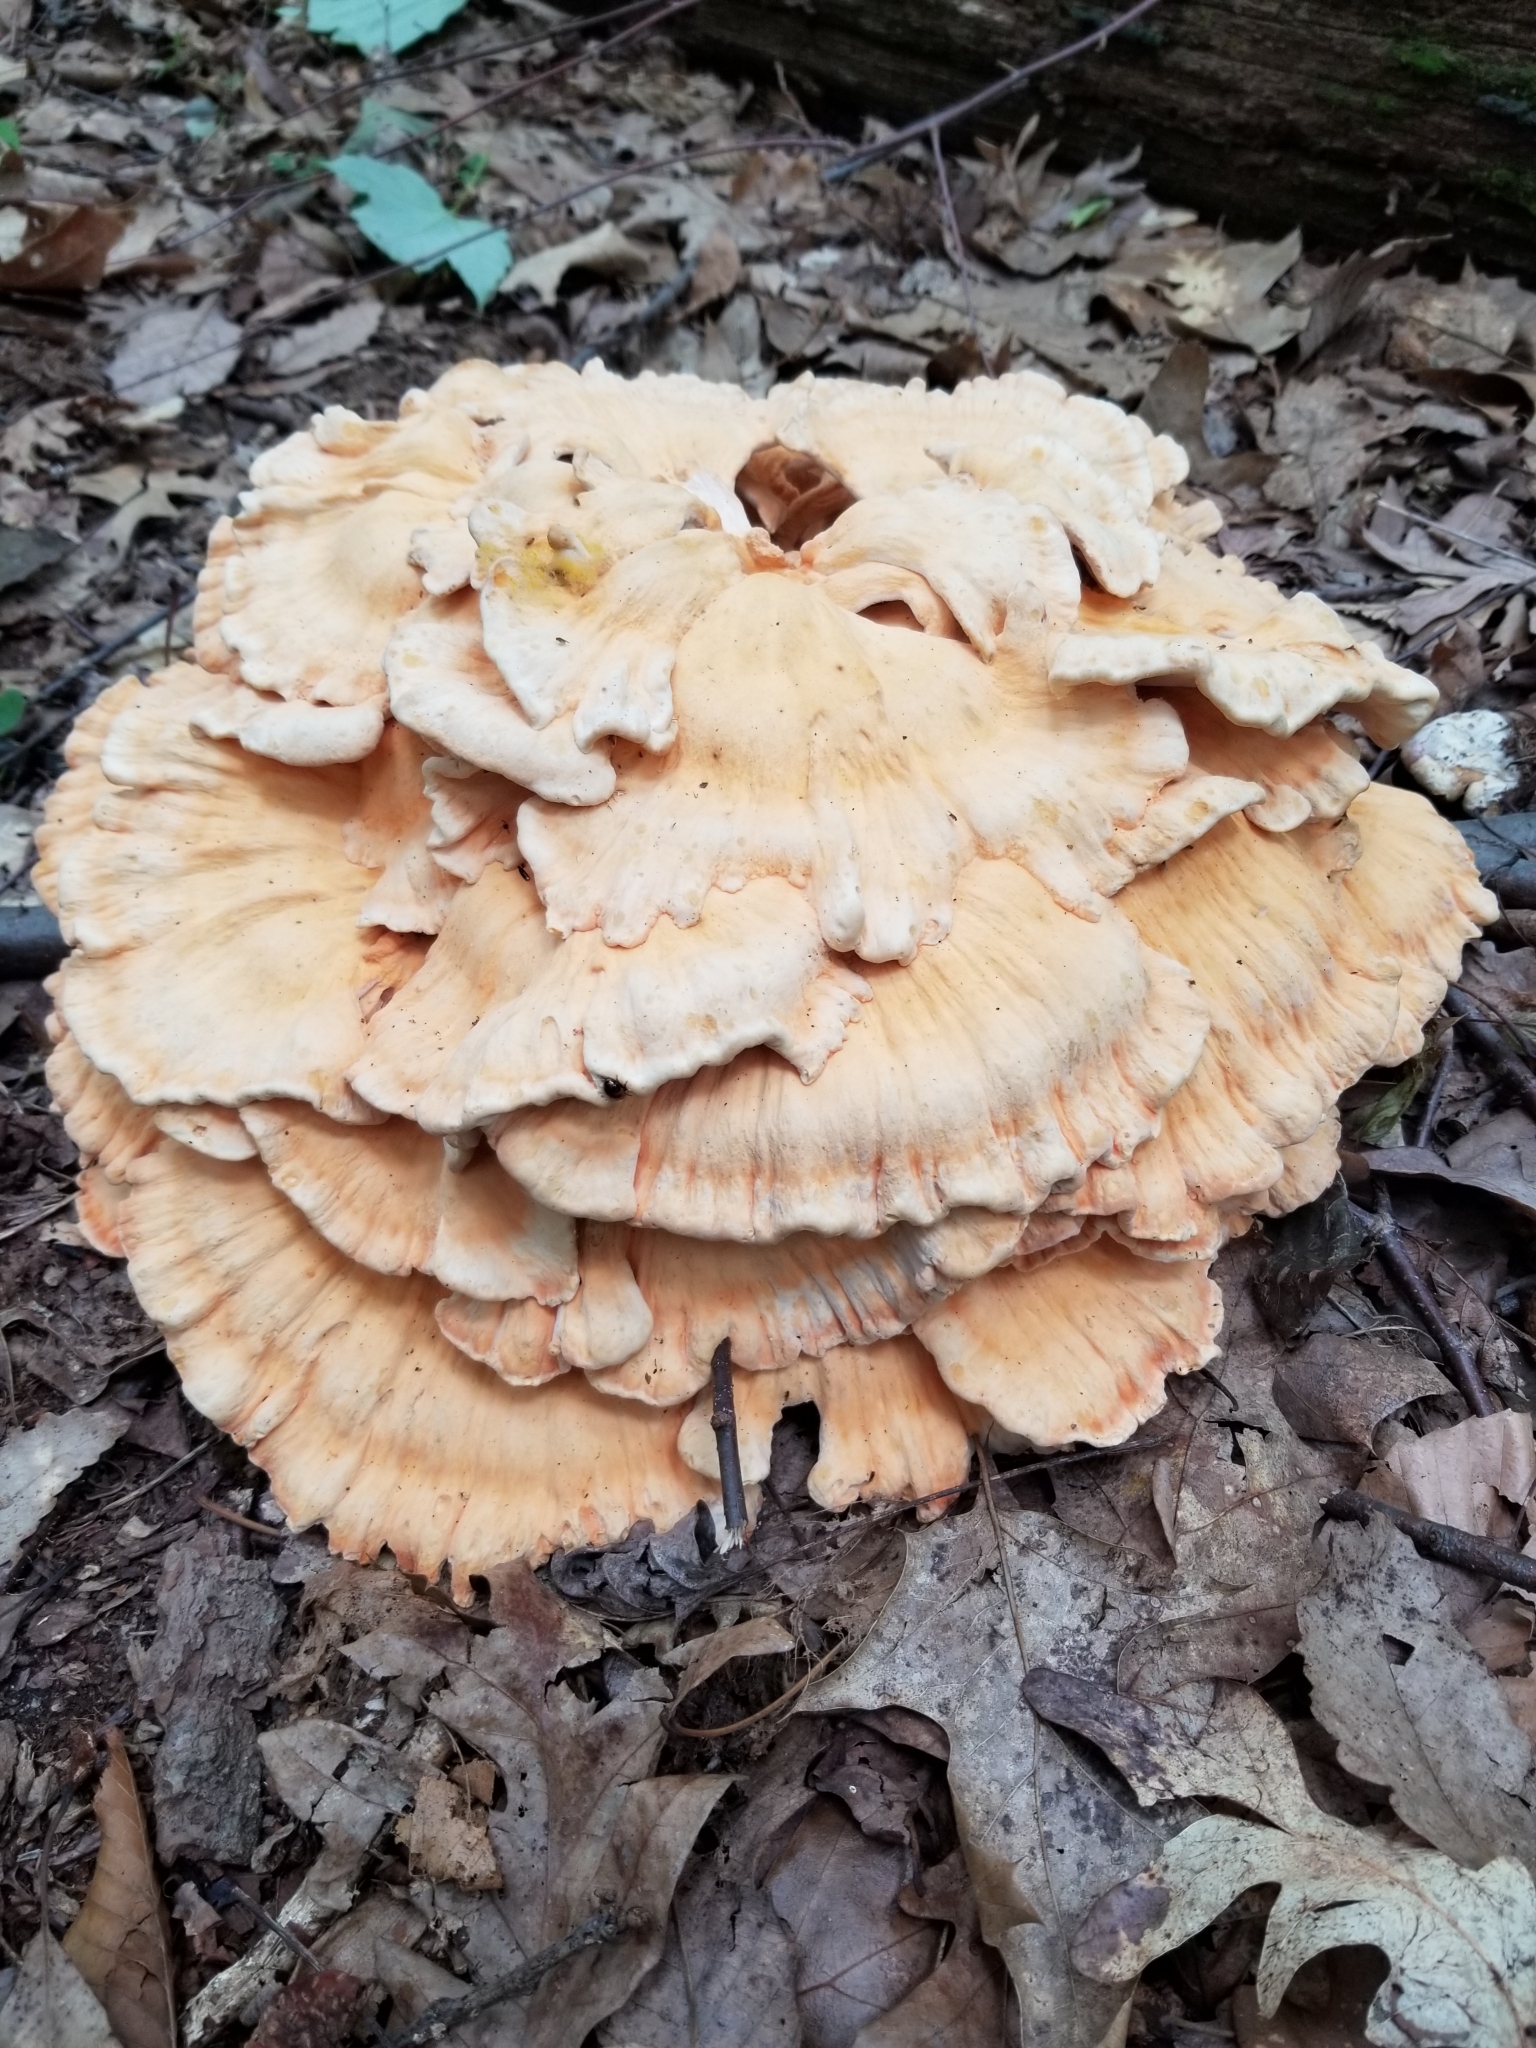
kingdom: Fungi
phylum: Basidiomycota
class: Agaricomycetes
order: Polyporales
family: Laetiporaceae
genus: Laetiporus
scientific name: Laetiporus sulphureus
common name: Chicken of the woods
